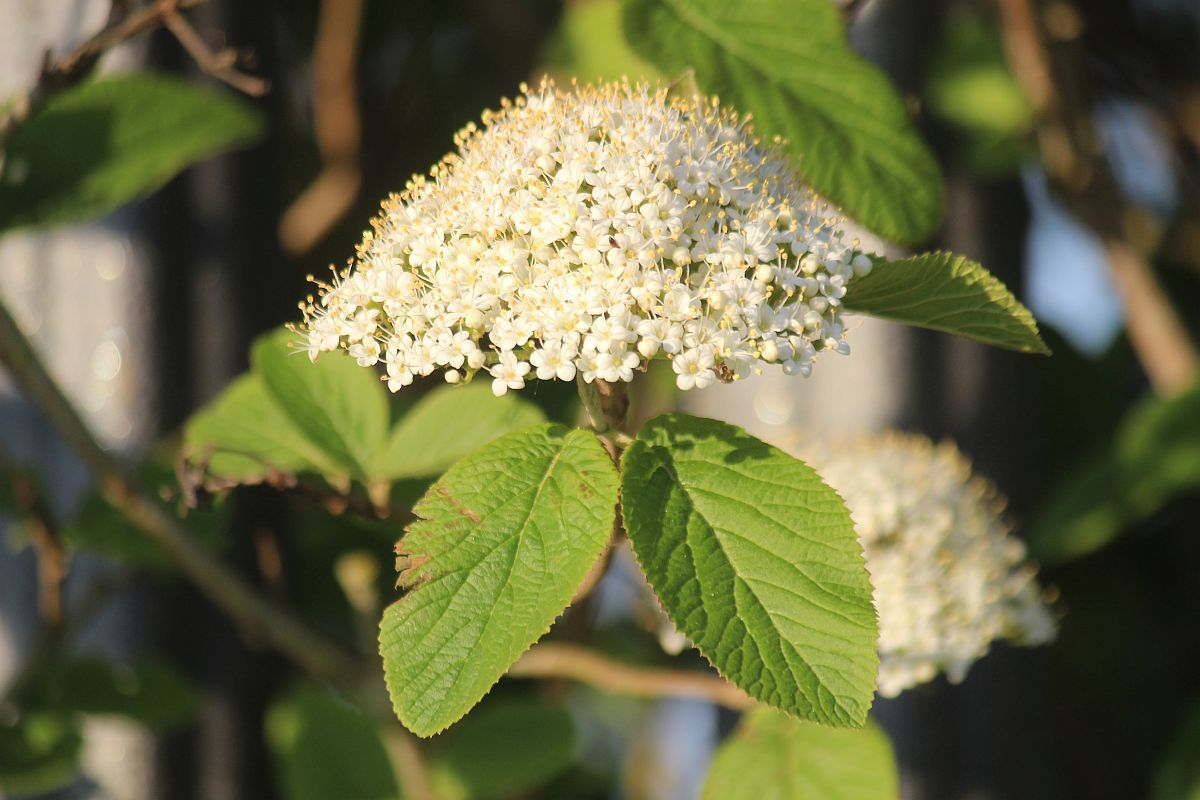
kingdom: Plantae
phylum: Tracheophyta
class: Magnoliopsida
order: Dipsacales
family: Viburnaceae
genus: Viburnum
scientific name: Viburnum lantana
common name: Wayfaring tree
